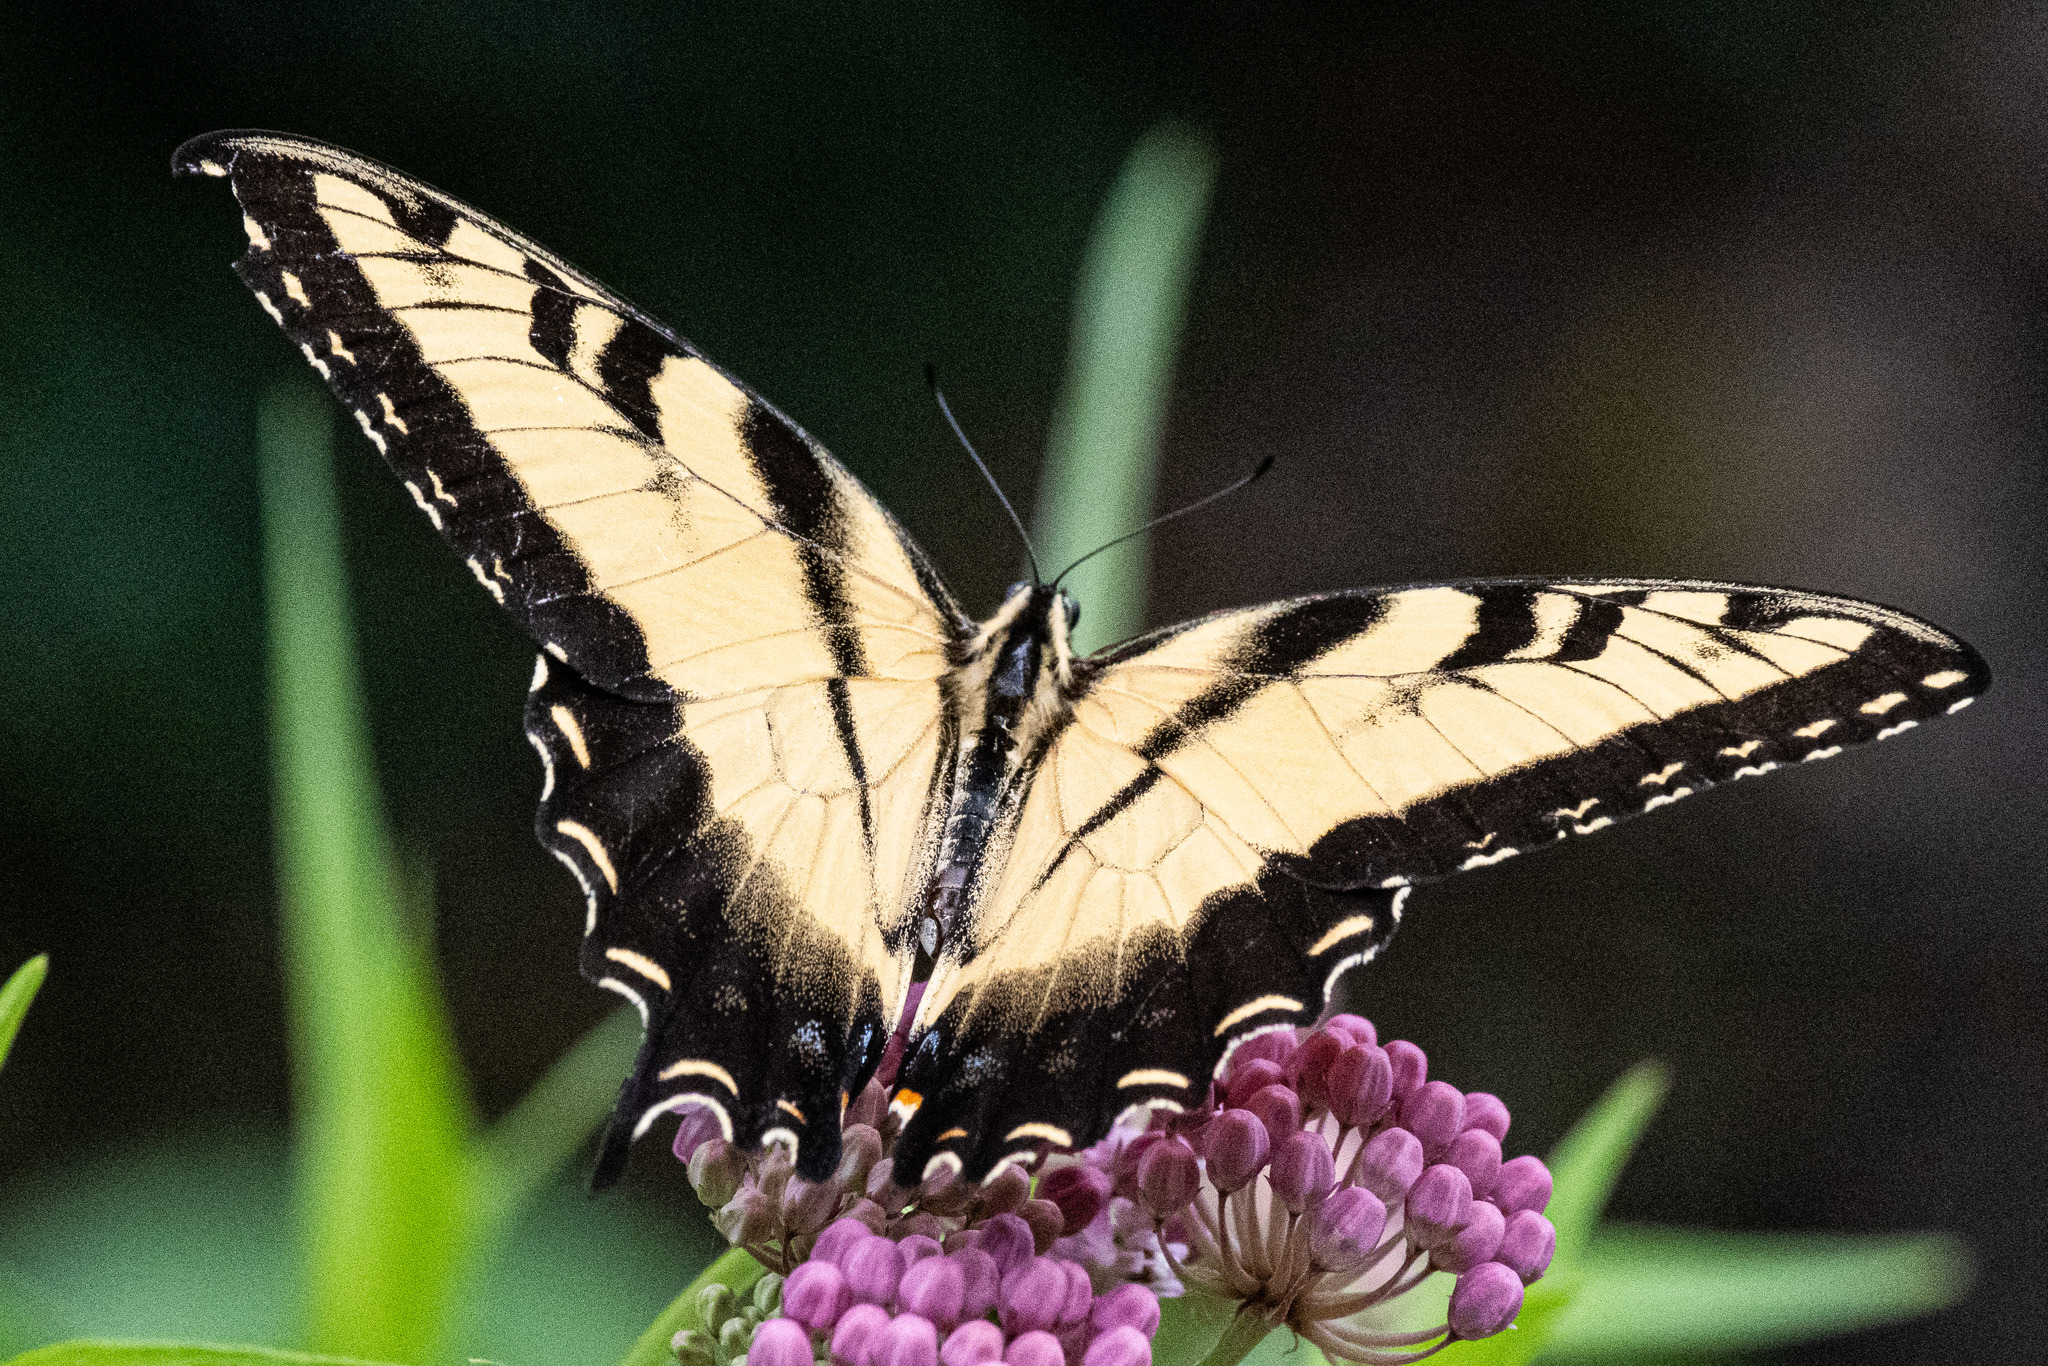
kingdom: Animalia
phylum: Arthropoda
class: Insecta
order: Lepidoptera
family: Papilionidae
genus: Papilio
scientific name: Papilio glaucus
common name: Tiger swallowtail
